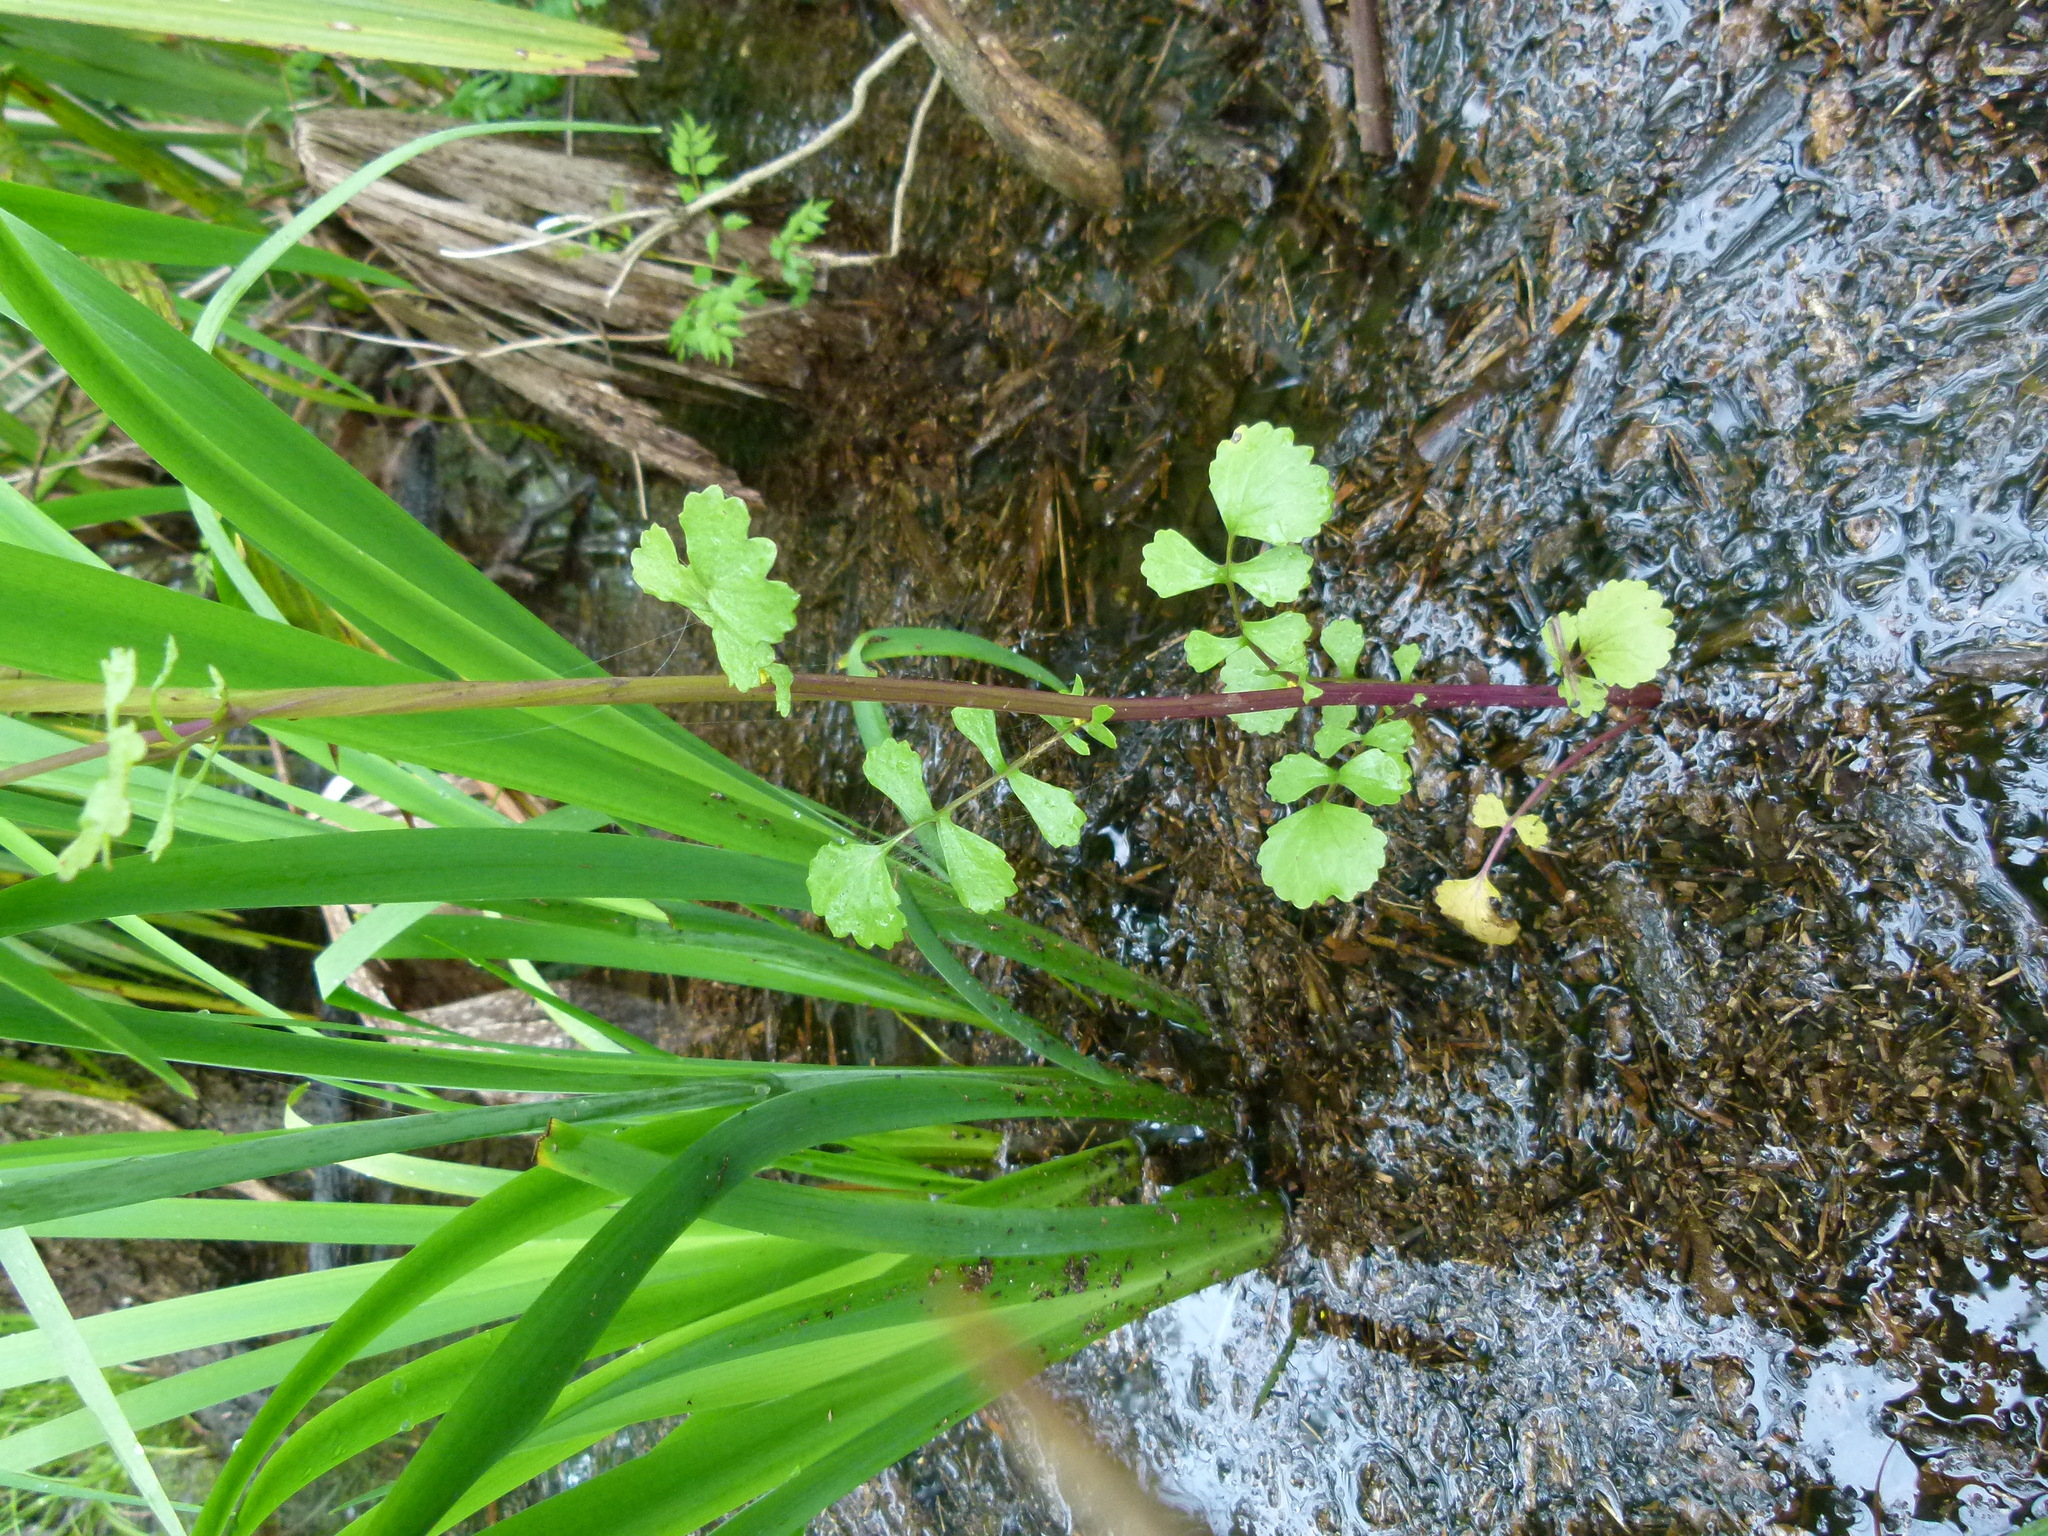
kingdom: Plantae
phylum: Tracheophyta
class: Magnoliopsida
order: Asterales
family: Asteraceae
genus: Packera
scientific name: Packera glabella
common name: Butterweed
